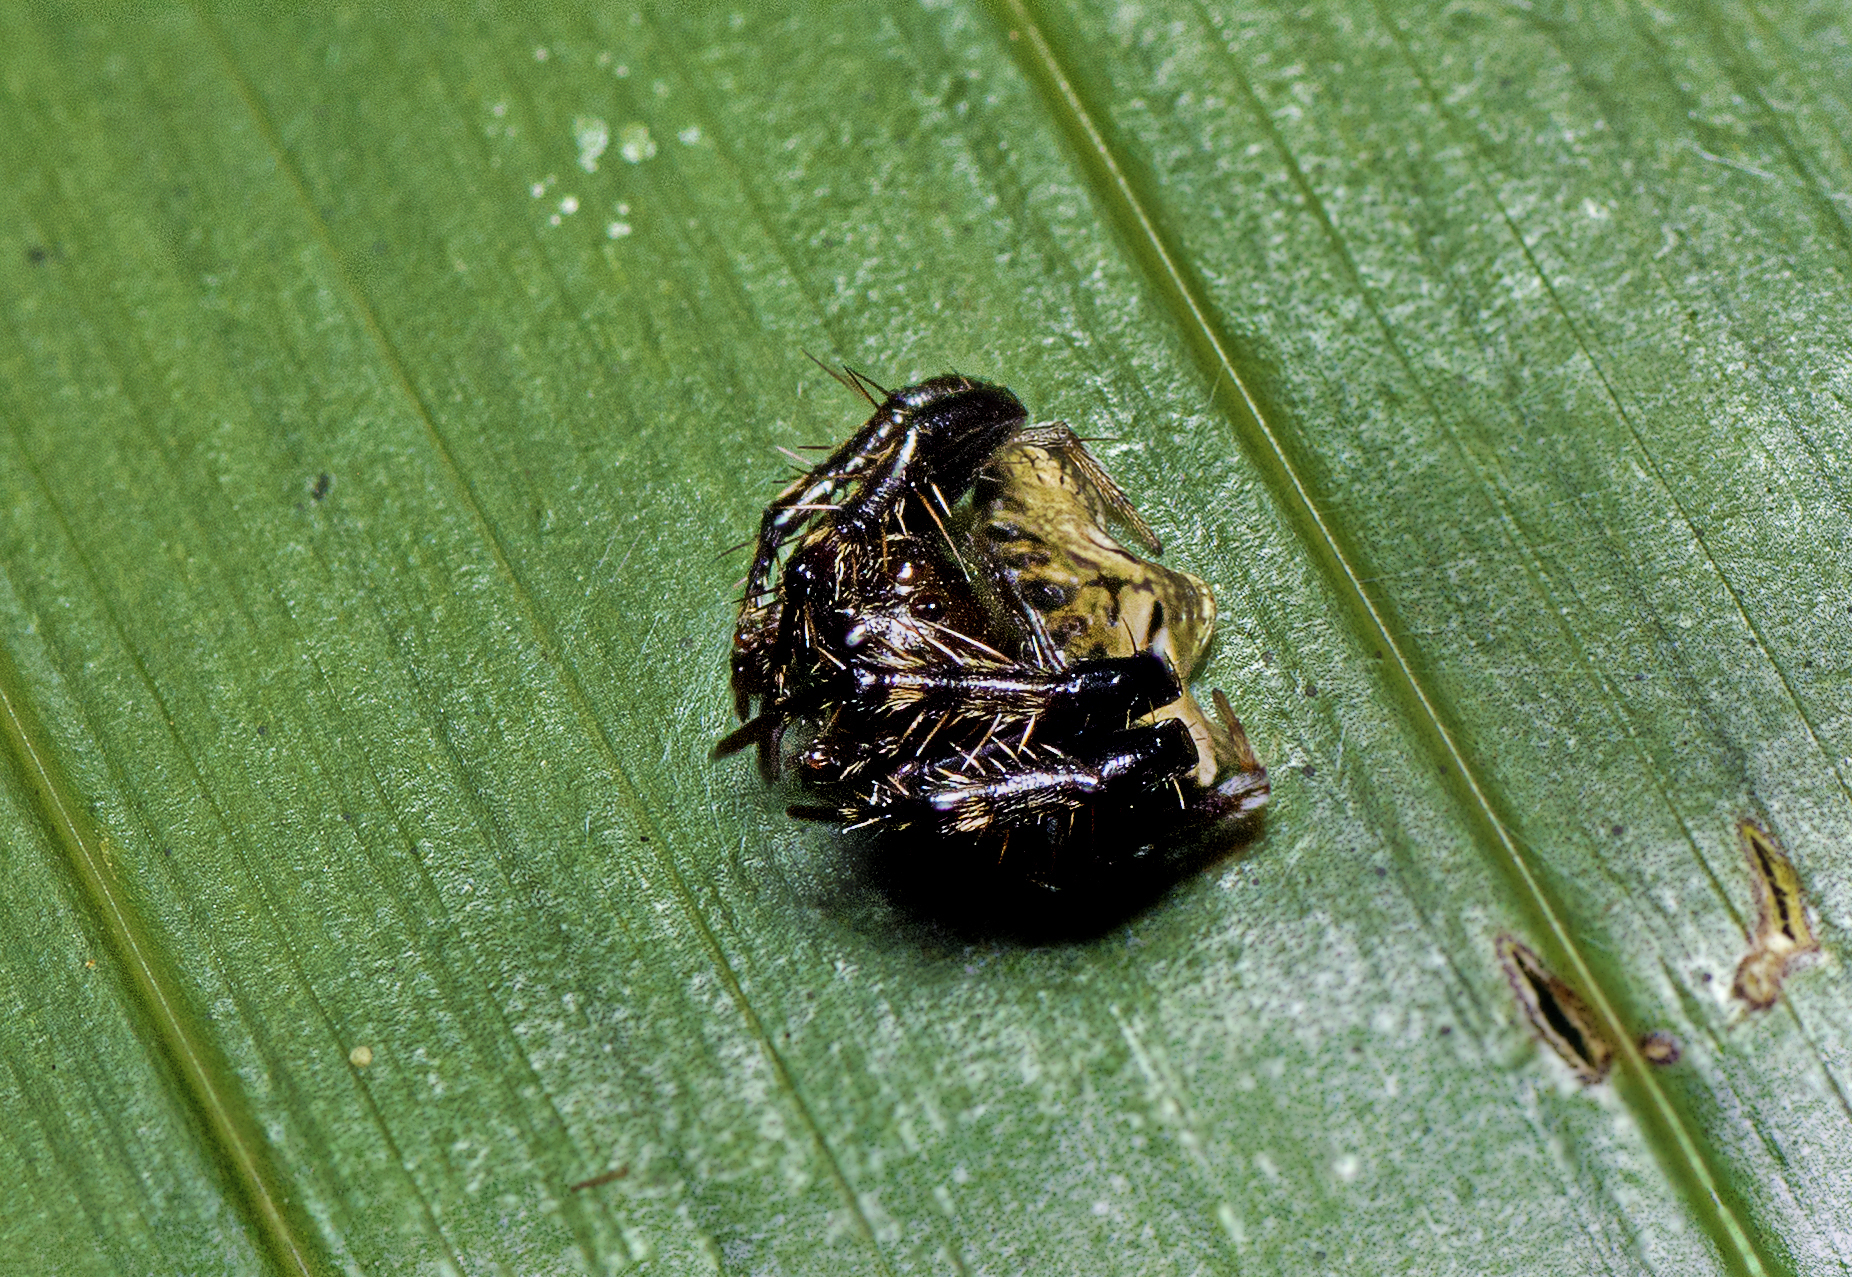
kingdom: Animalia
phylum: Arthropoda
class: Arachnida
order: Araneae
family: Arkyidae
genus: Arkys
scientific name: Arkys speechleyi
